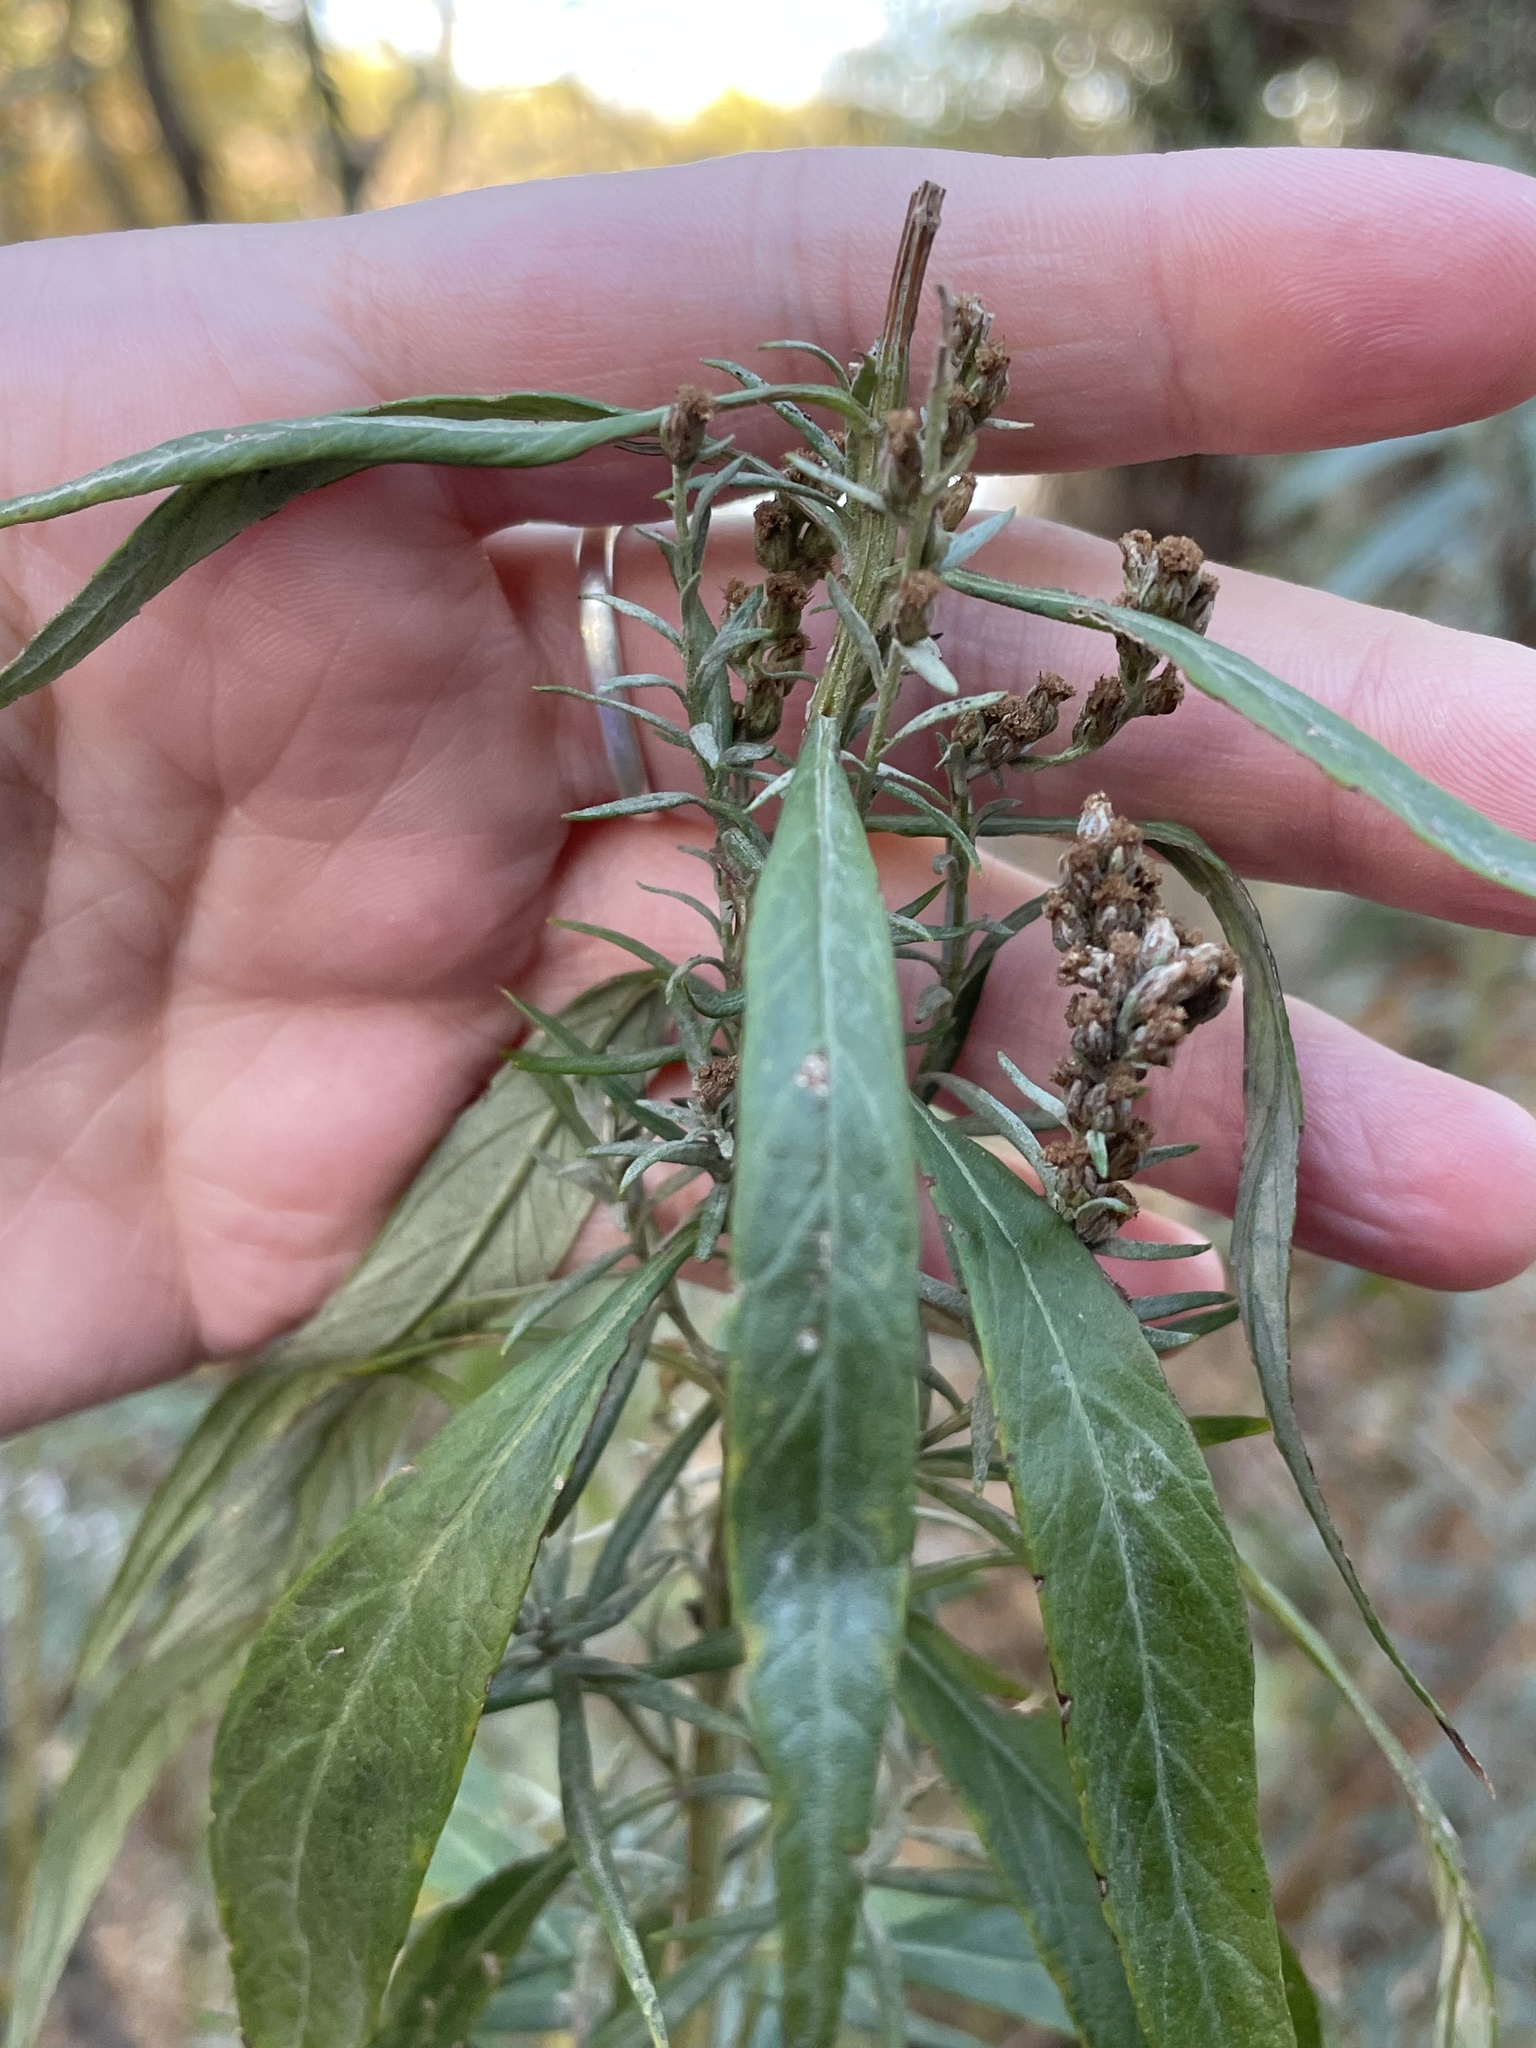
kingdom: Plantae
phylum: Tracheophyta
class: Magnoliopsida
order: Asterales
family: Asteraceae
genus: Artemisia
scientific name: Artemisia douglasiana
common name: Northwest mugwort
